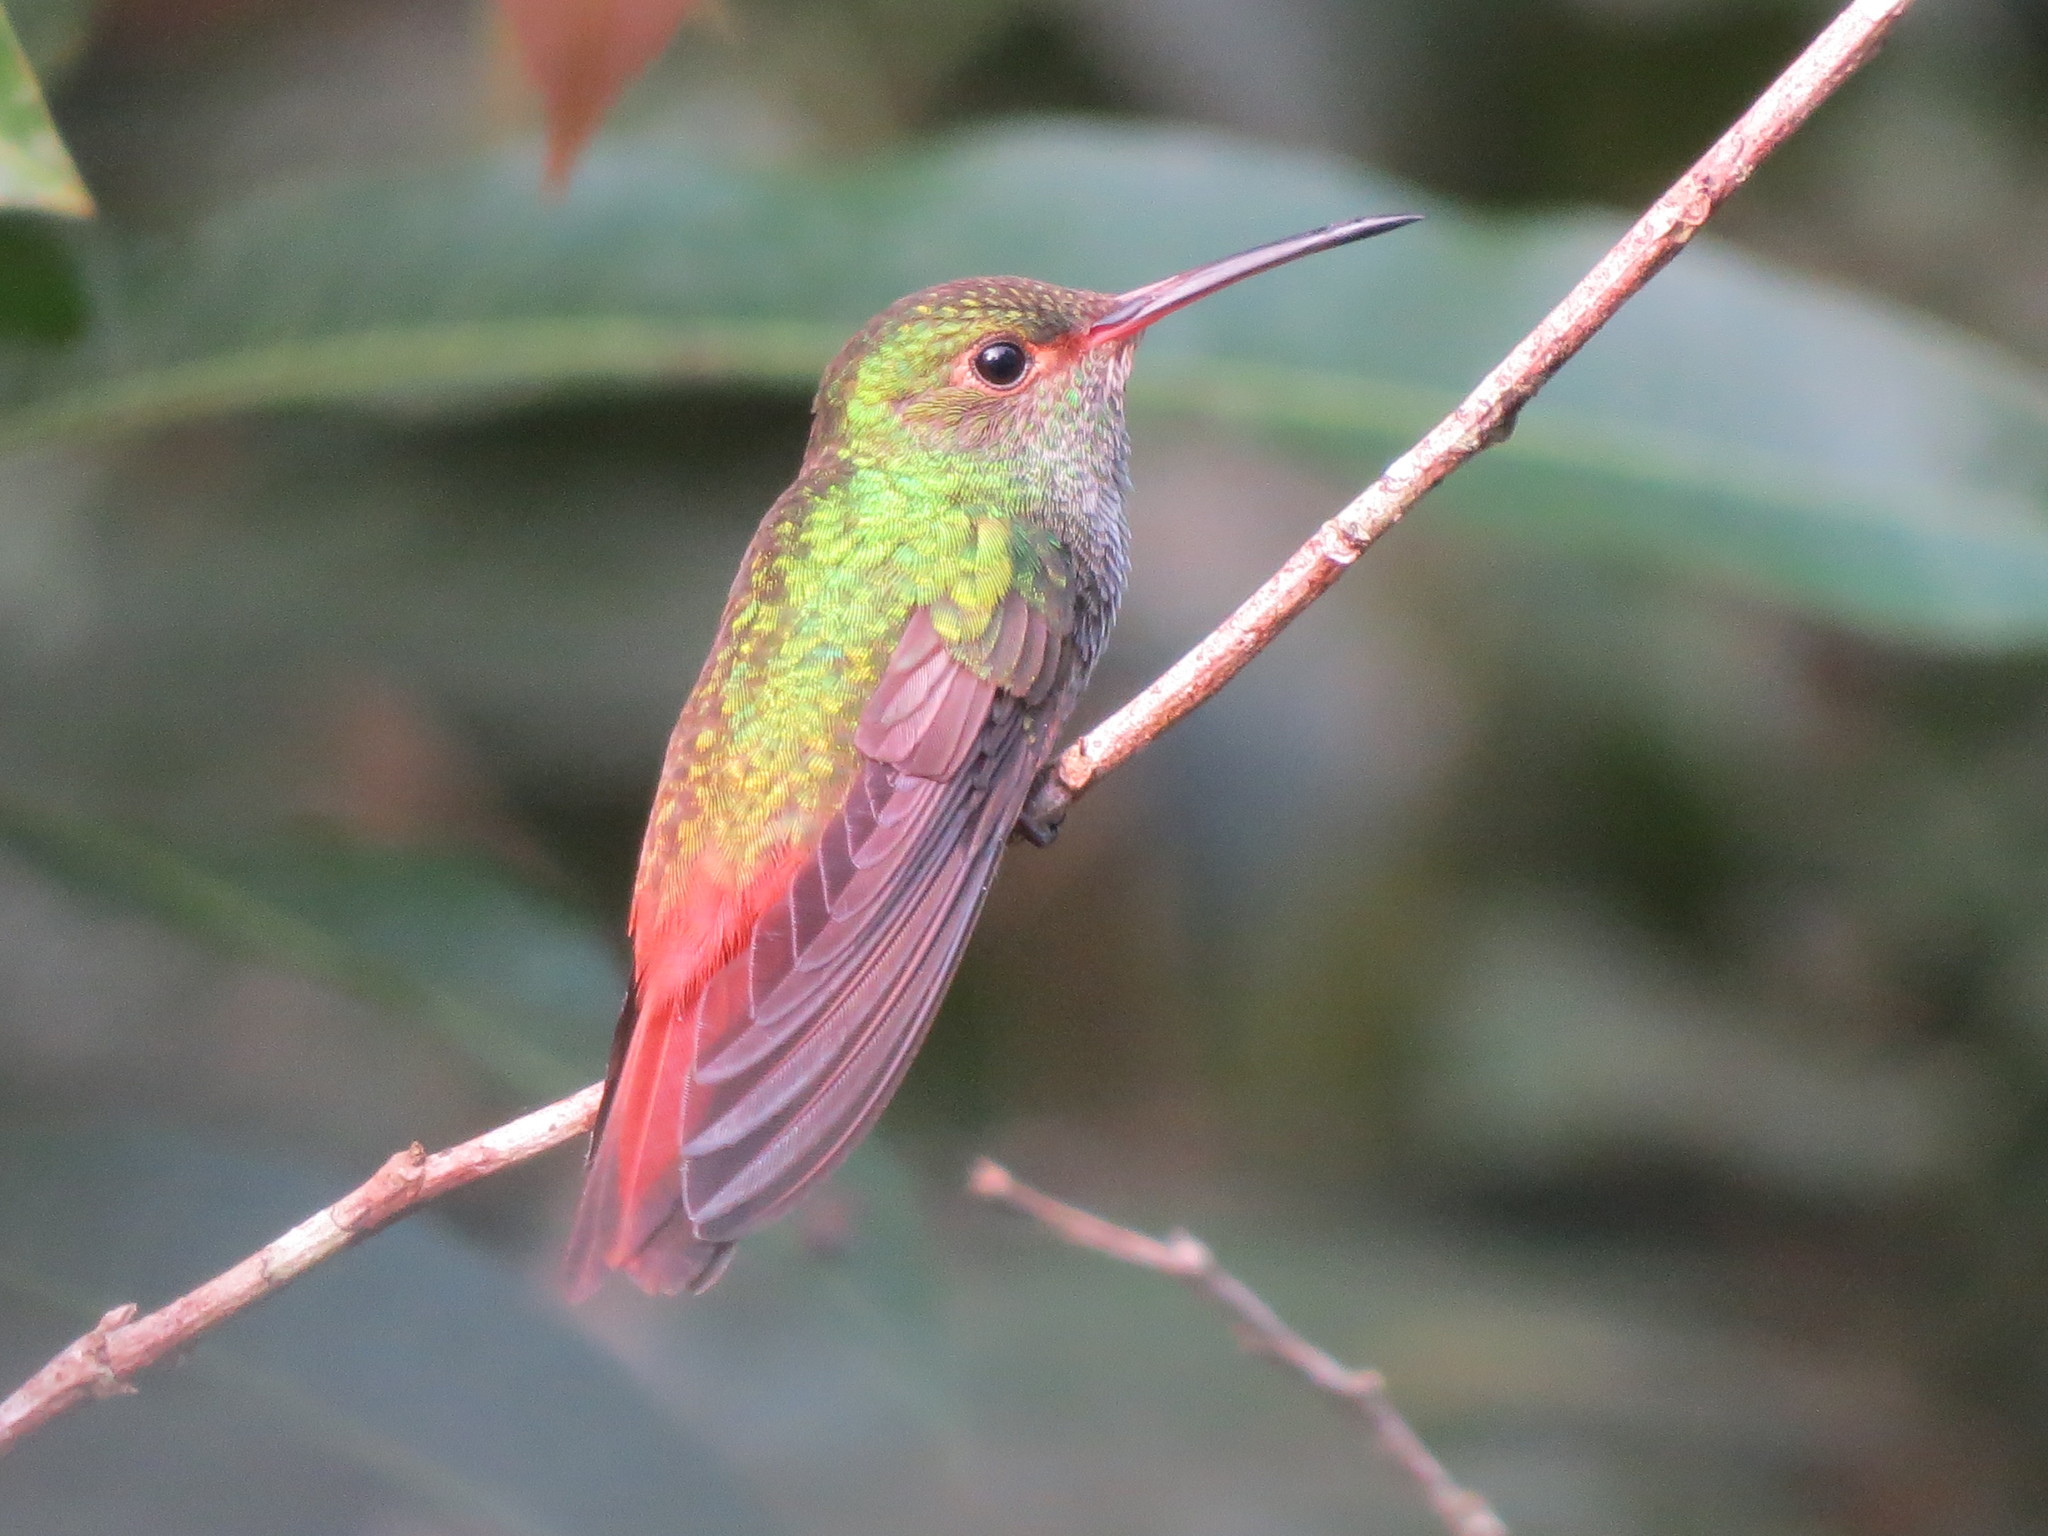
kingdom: Animalia
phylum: Chordata
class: Aves
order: Apodiformes
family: Trochilidae
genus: Amazilia
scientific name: Amazilia tzacatl
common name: Rufous-tailed hummingbird
